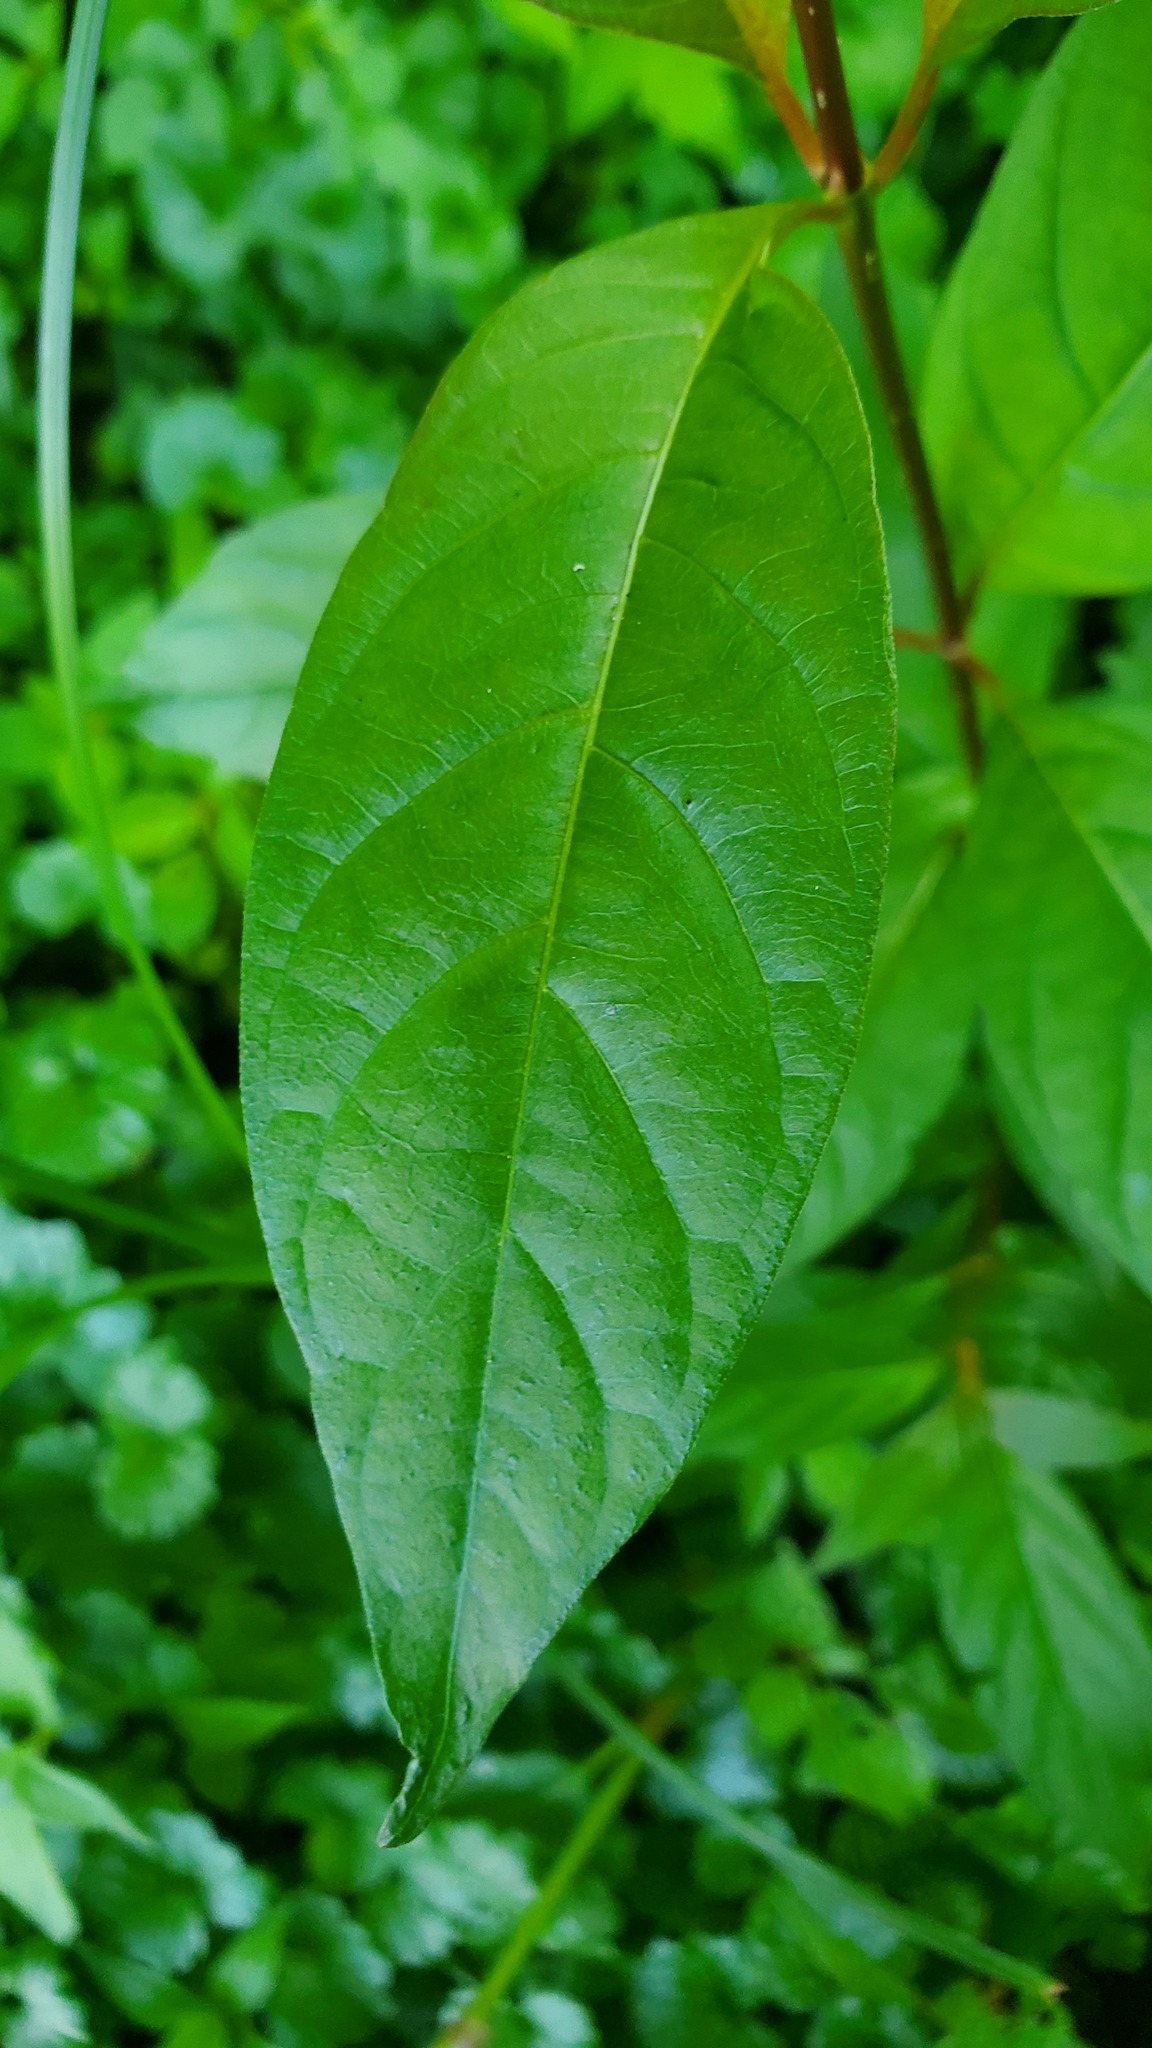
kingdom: Plantae
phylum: Tracheophyta
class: Magnoliopsida
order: Gentianales
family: Rubiaceae
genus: Cephalanthus
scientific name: Cephalanthus occidentalis
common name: Button-willow
